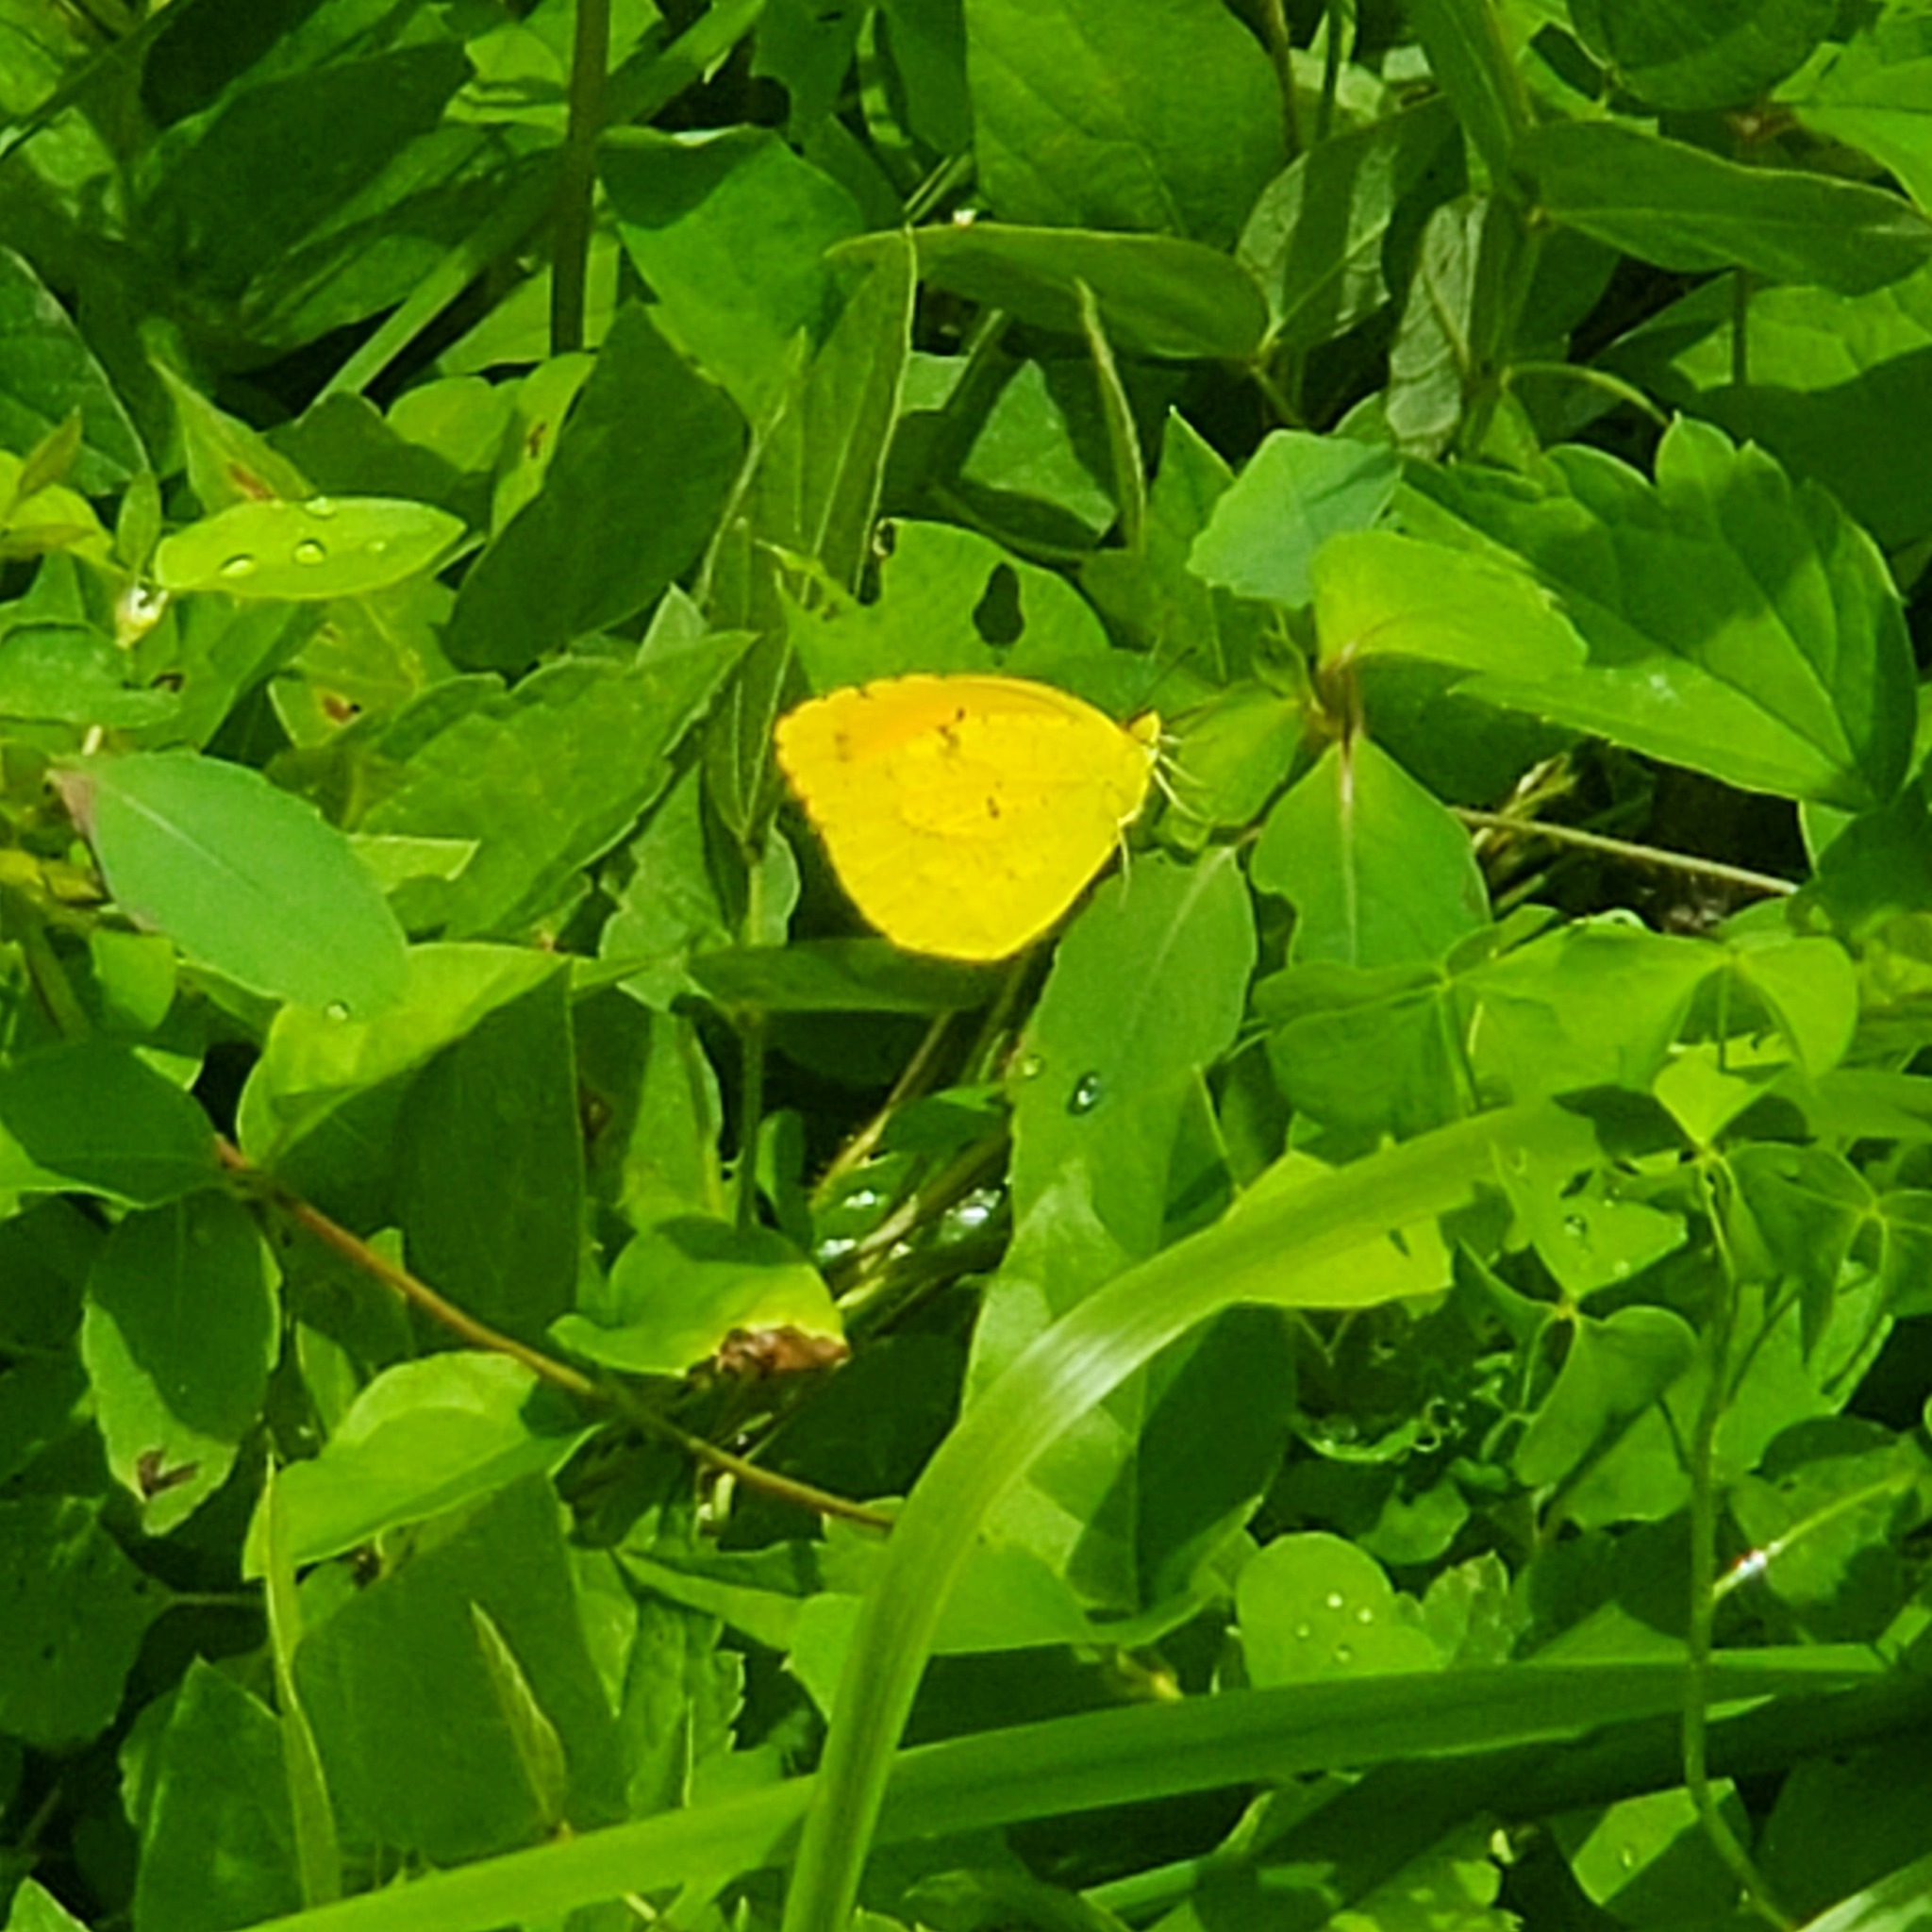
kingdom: Animalia
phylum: Arthropoda
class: Insecta
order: Lepidoptera
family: Pieridae
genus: Abaeis
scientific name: Abaeis nicippe
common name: Sleepy orange
